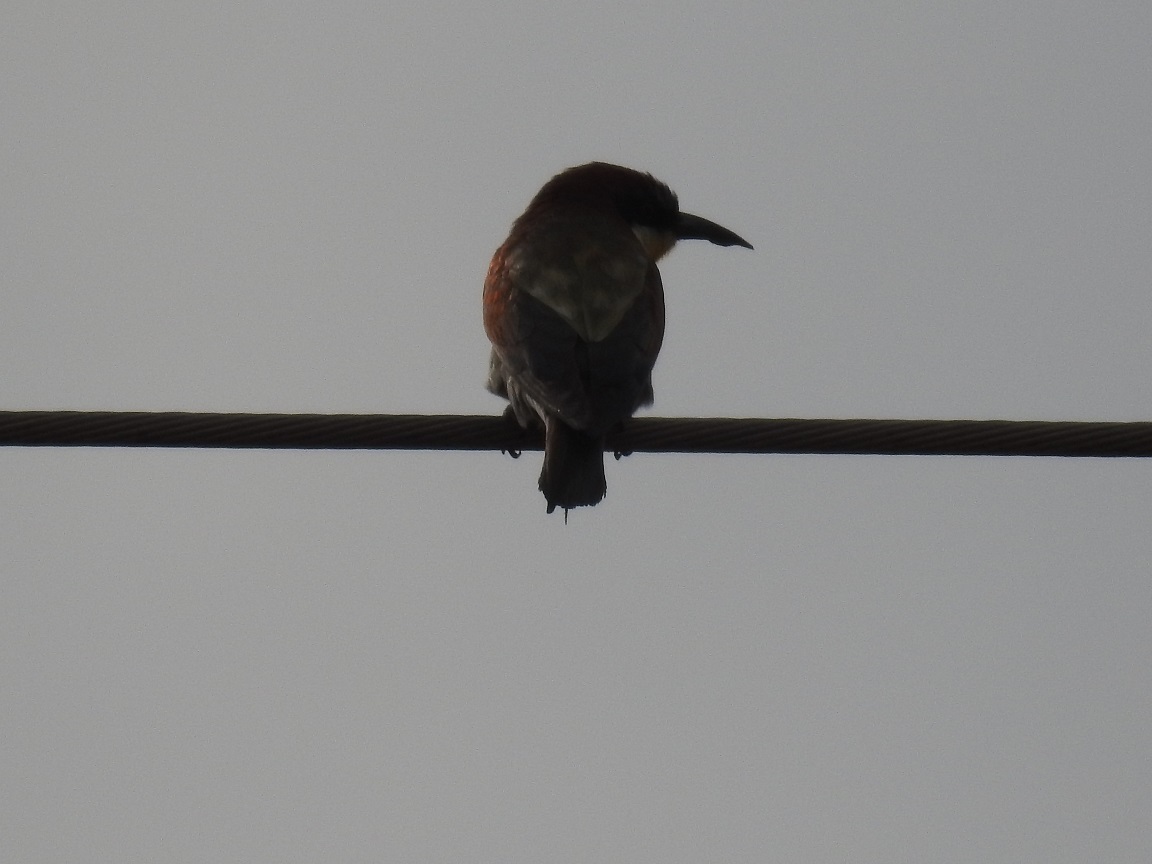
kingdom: Animalia
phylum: Chordata
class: Aves
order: Coraciiformes
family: Meropidae
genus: Merops
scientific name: Merops apiaster
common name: European bee-eater
